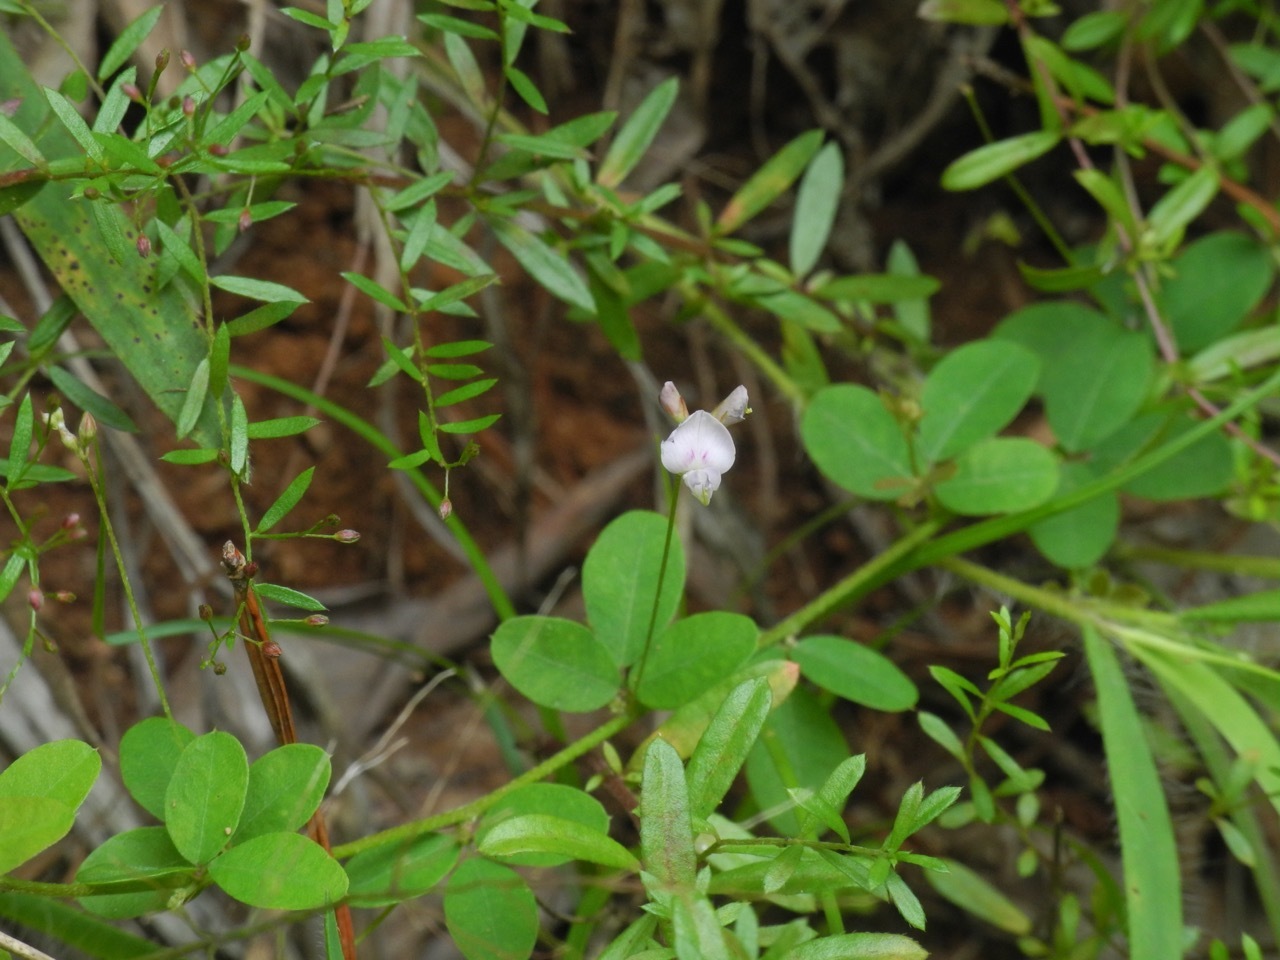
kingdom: Plantae
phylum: Tracheophyta
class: Magnoliopsida
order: Fabales
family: Fabaceae
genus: Lespedeza
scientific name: Lespedeza repens
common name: Creeping bush-clover
